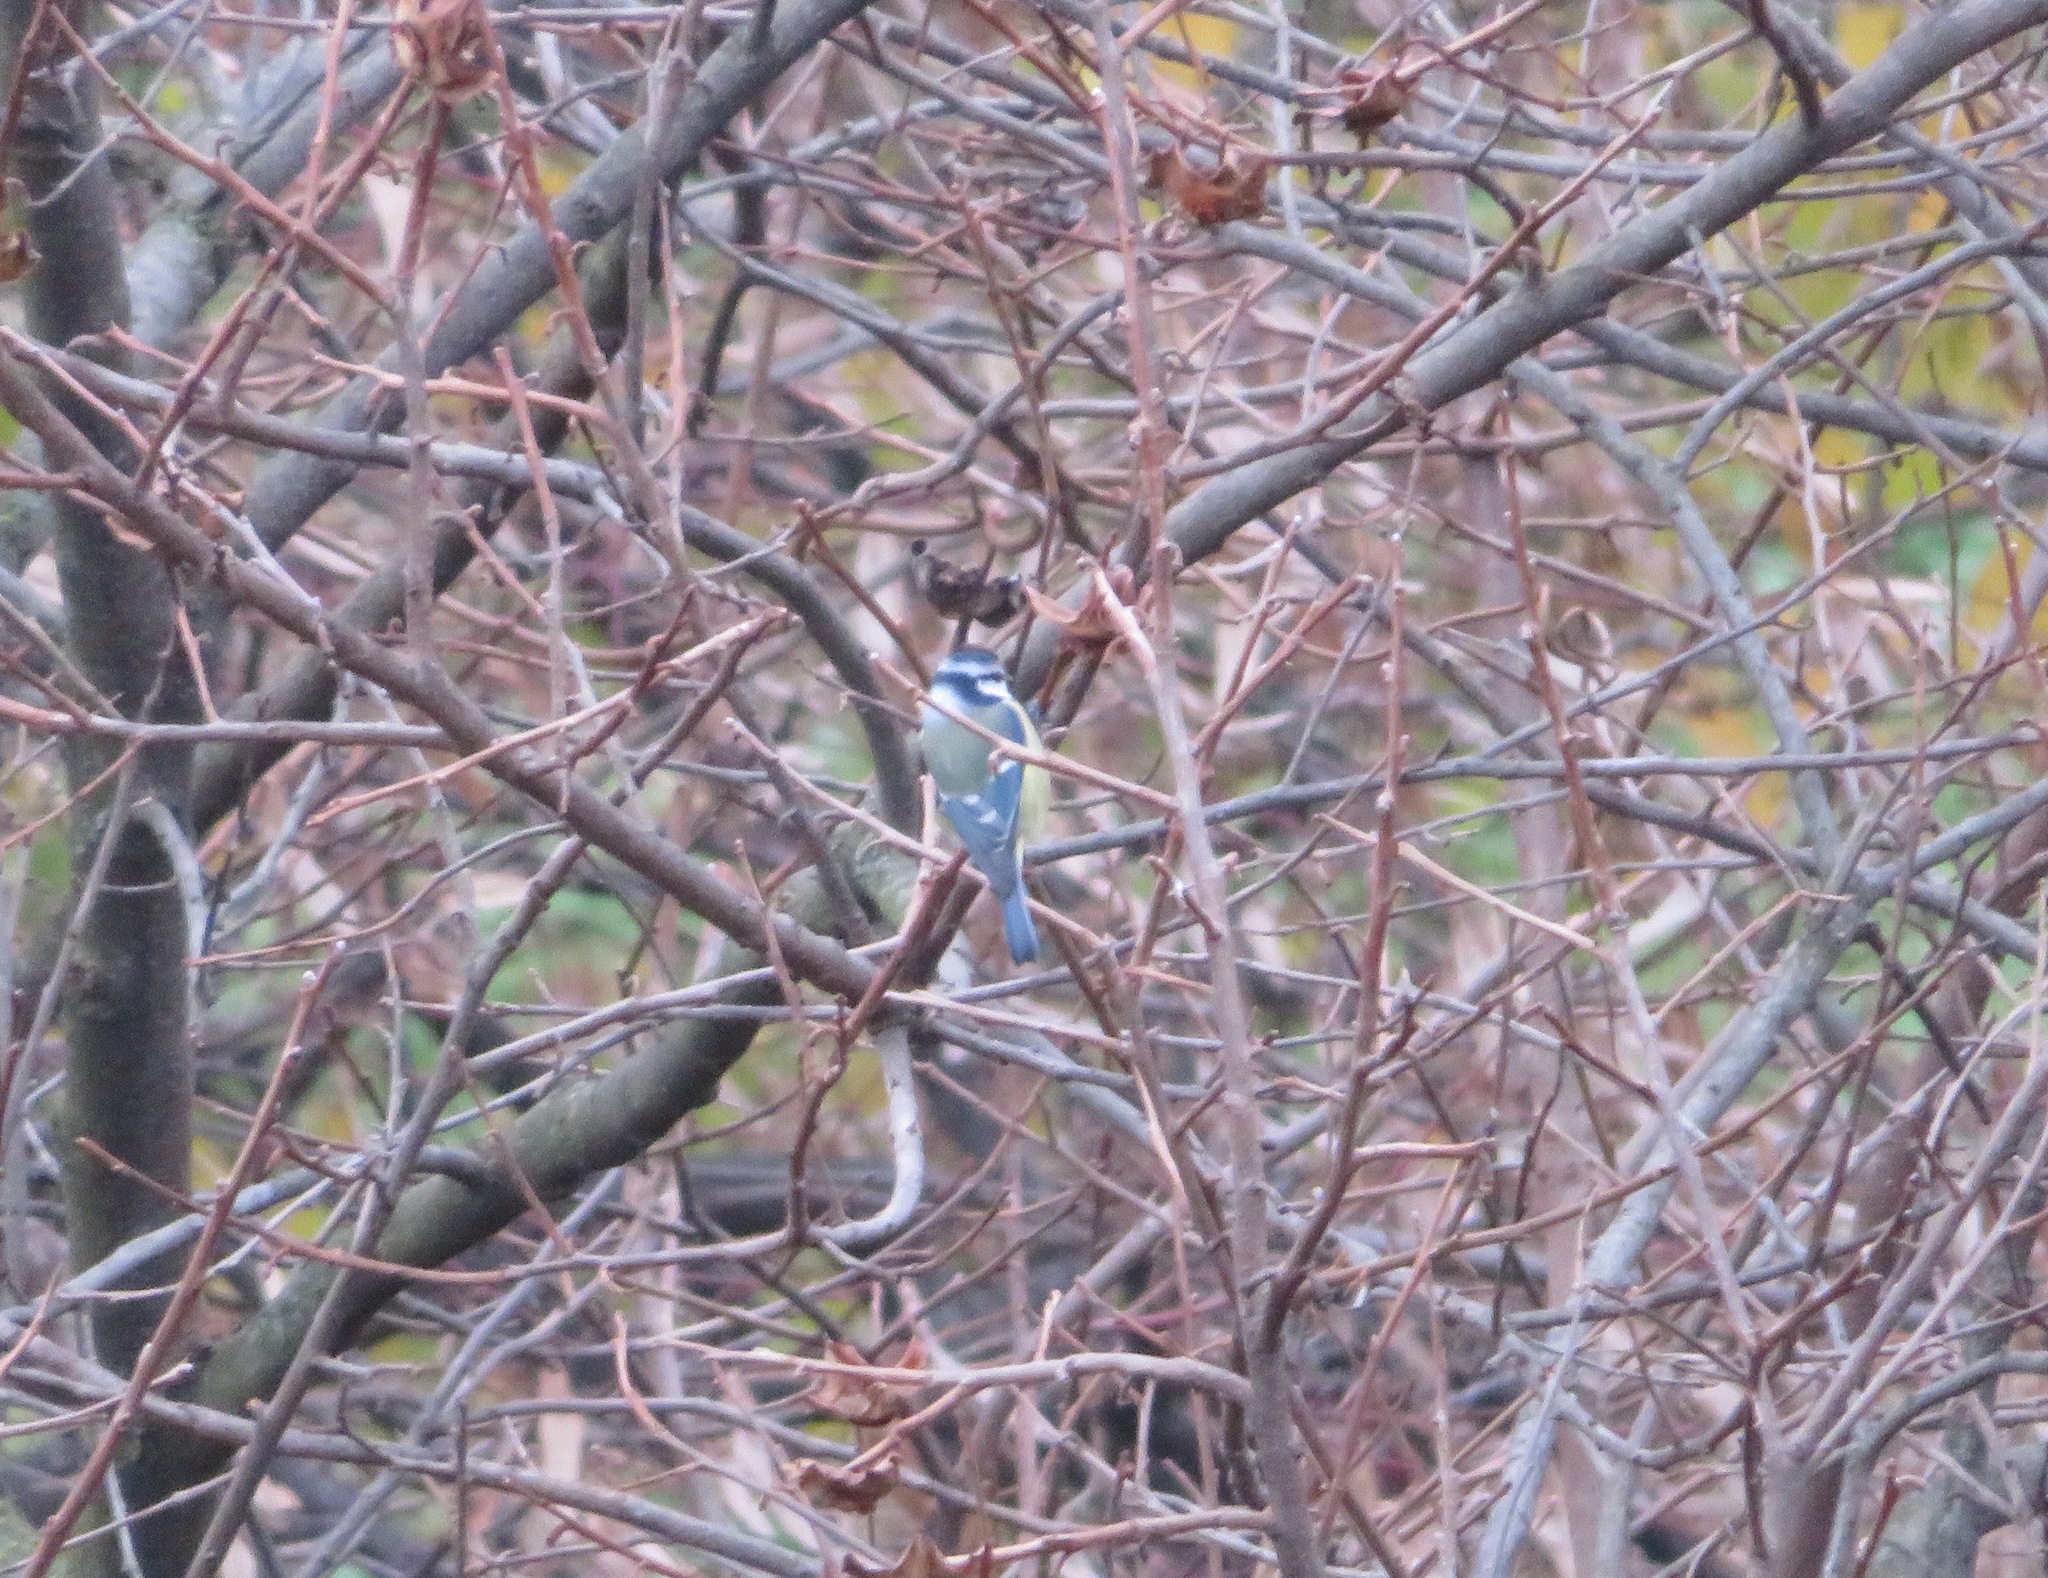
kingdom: Animalia
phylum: Chordata
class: Aves
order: Passeriformes
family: Paridae
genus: Cyanistes
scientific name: Cyanistes caeruleus
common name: Eurasian blue tit
